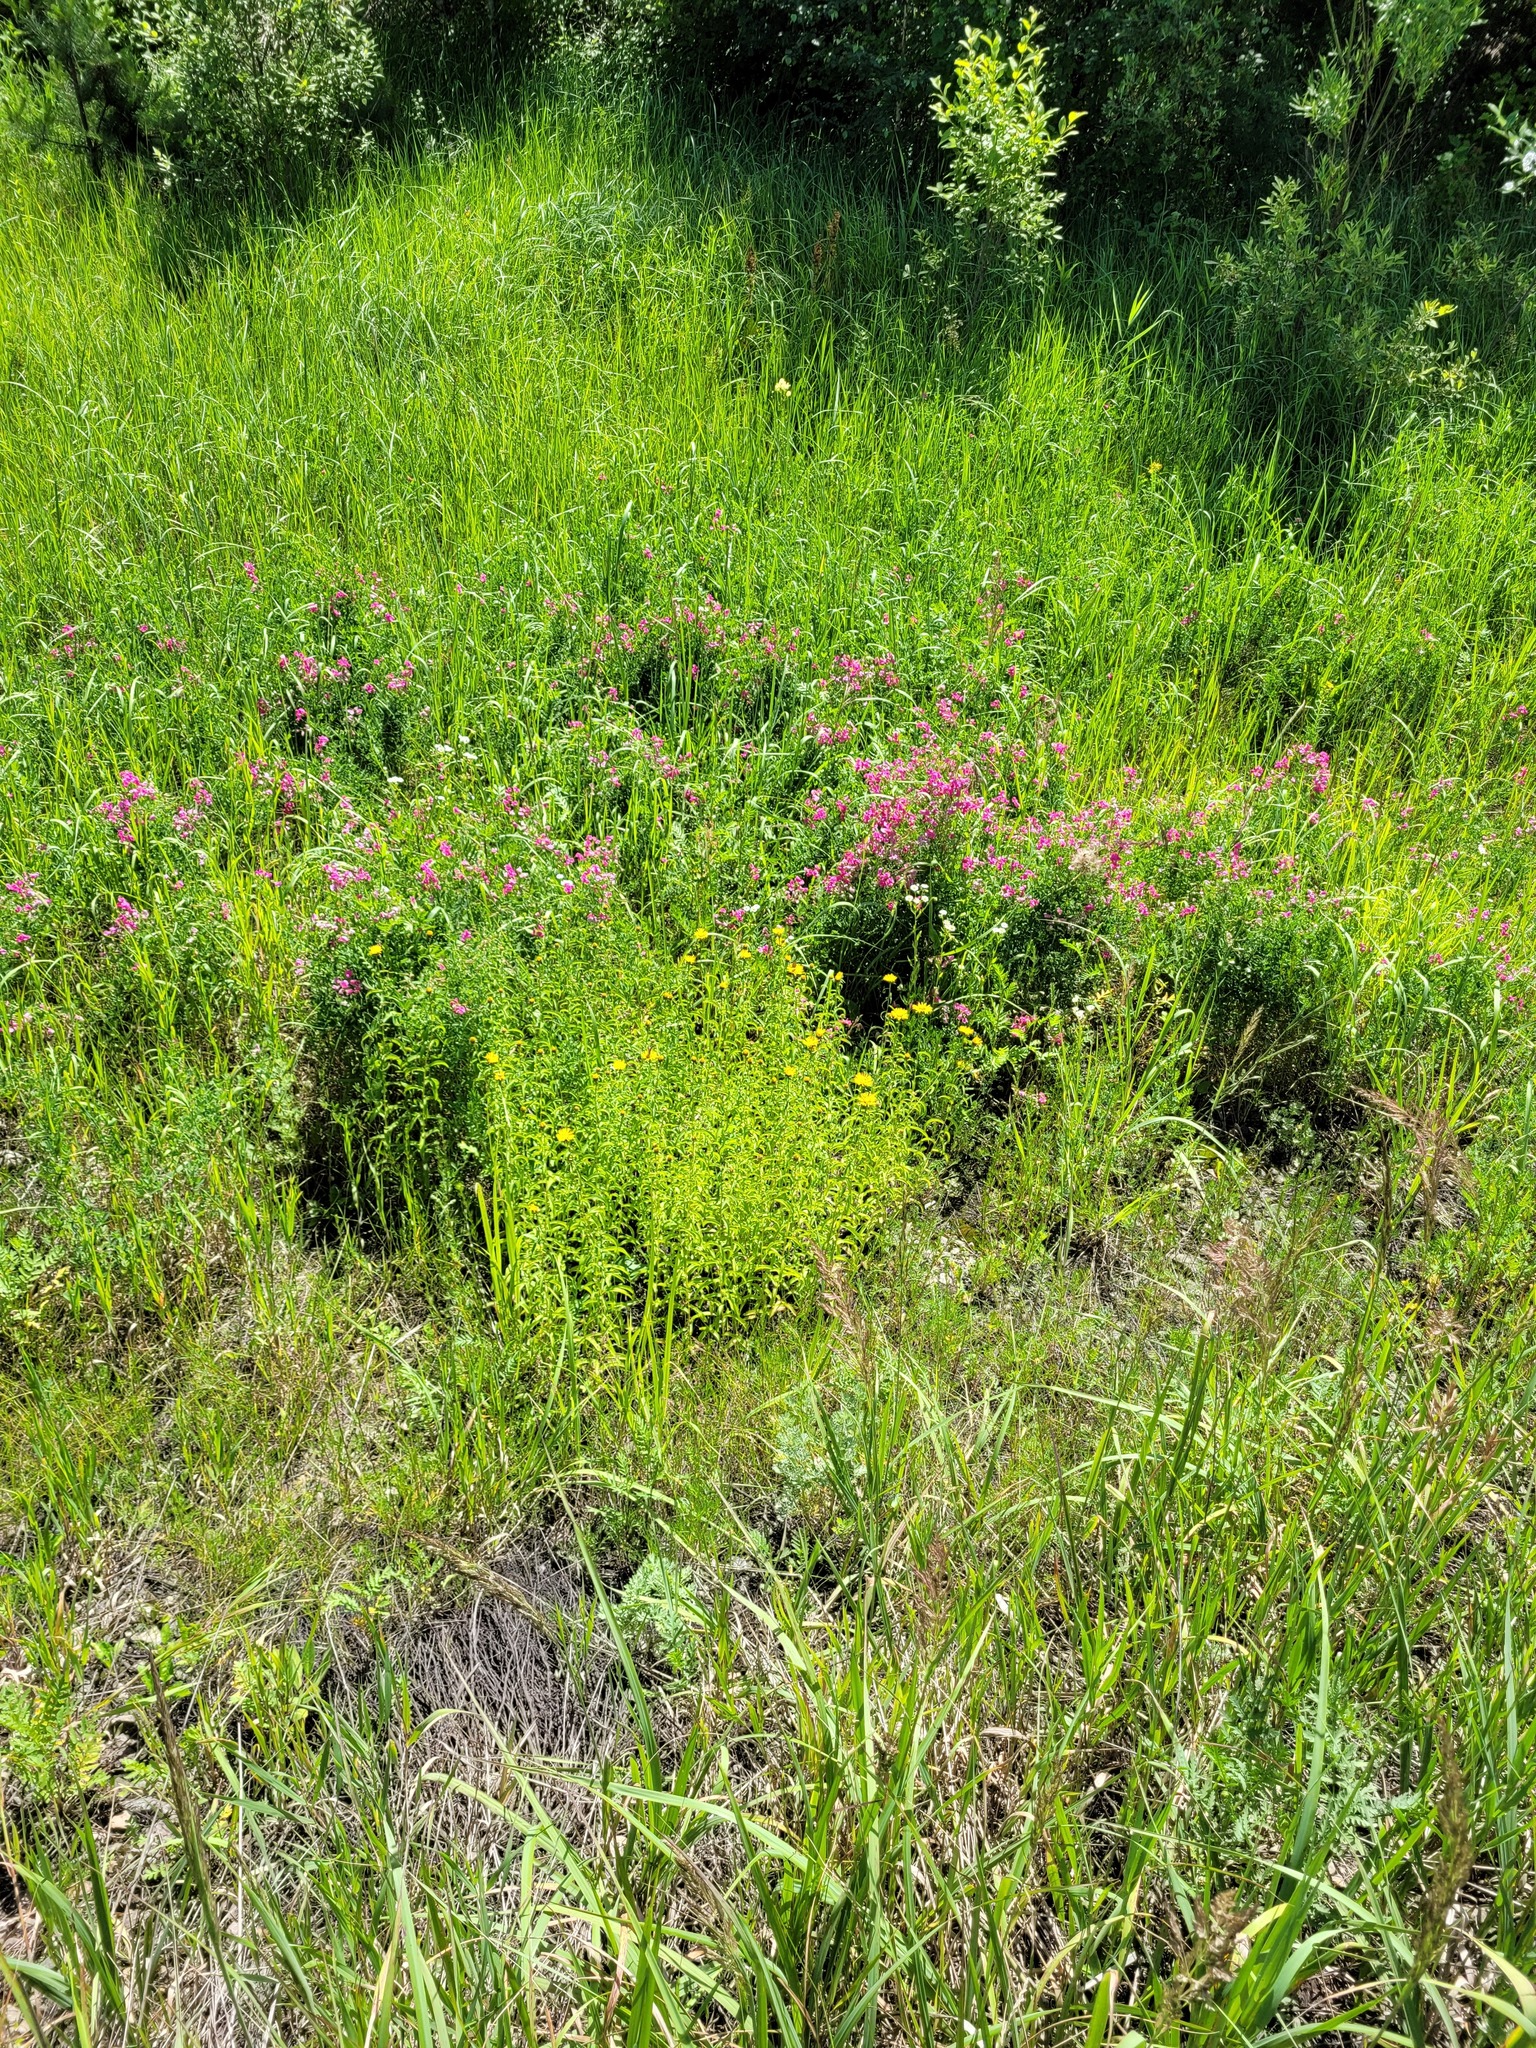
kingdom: Plantae
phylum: Tracheophyta
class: Magnoliopsida
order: Asterales
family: Asteraceae
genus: Pentanema
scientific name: Pentanema salicinum
